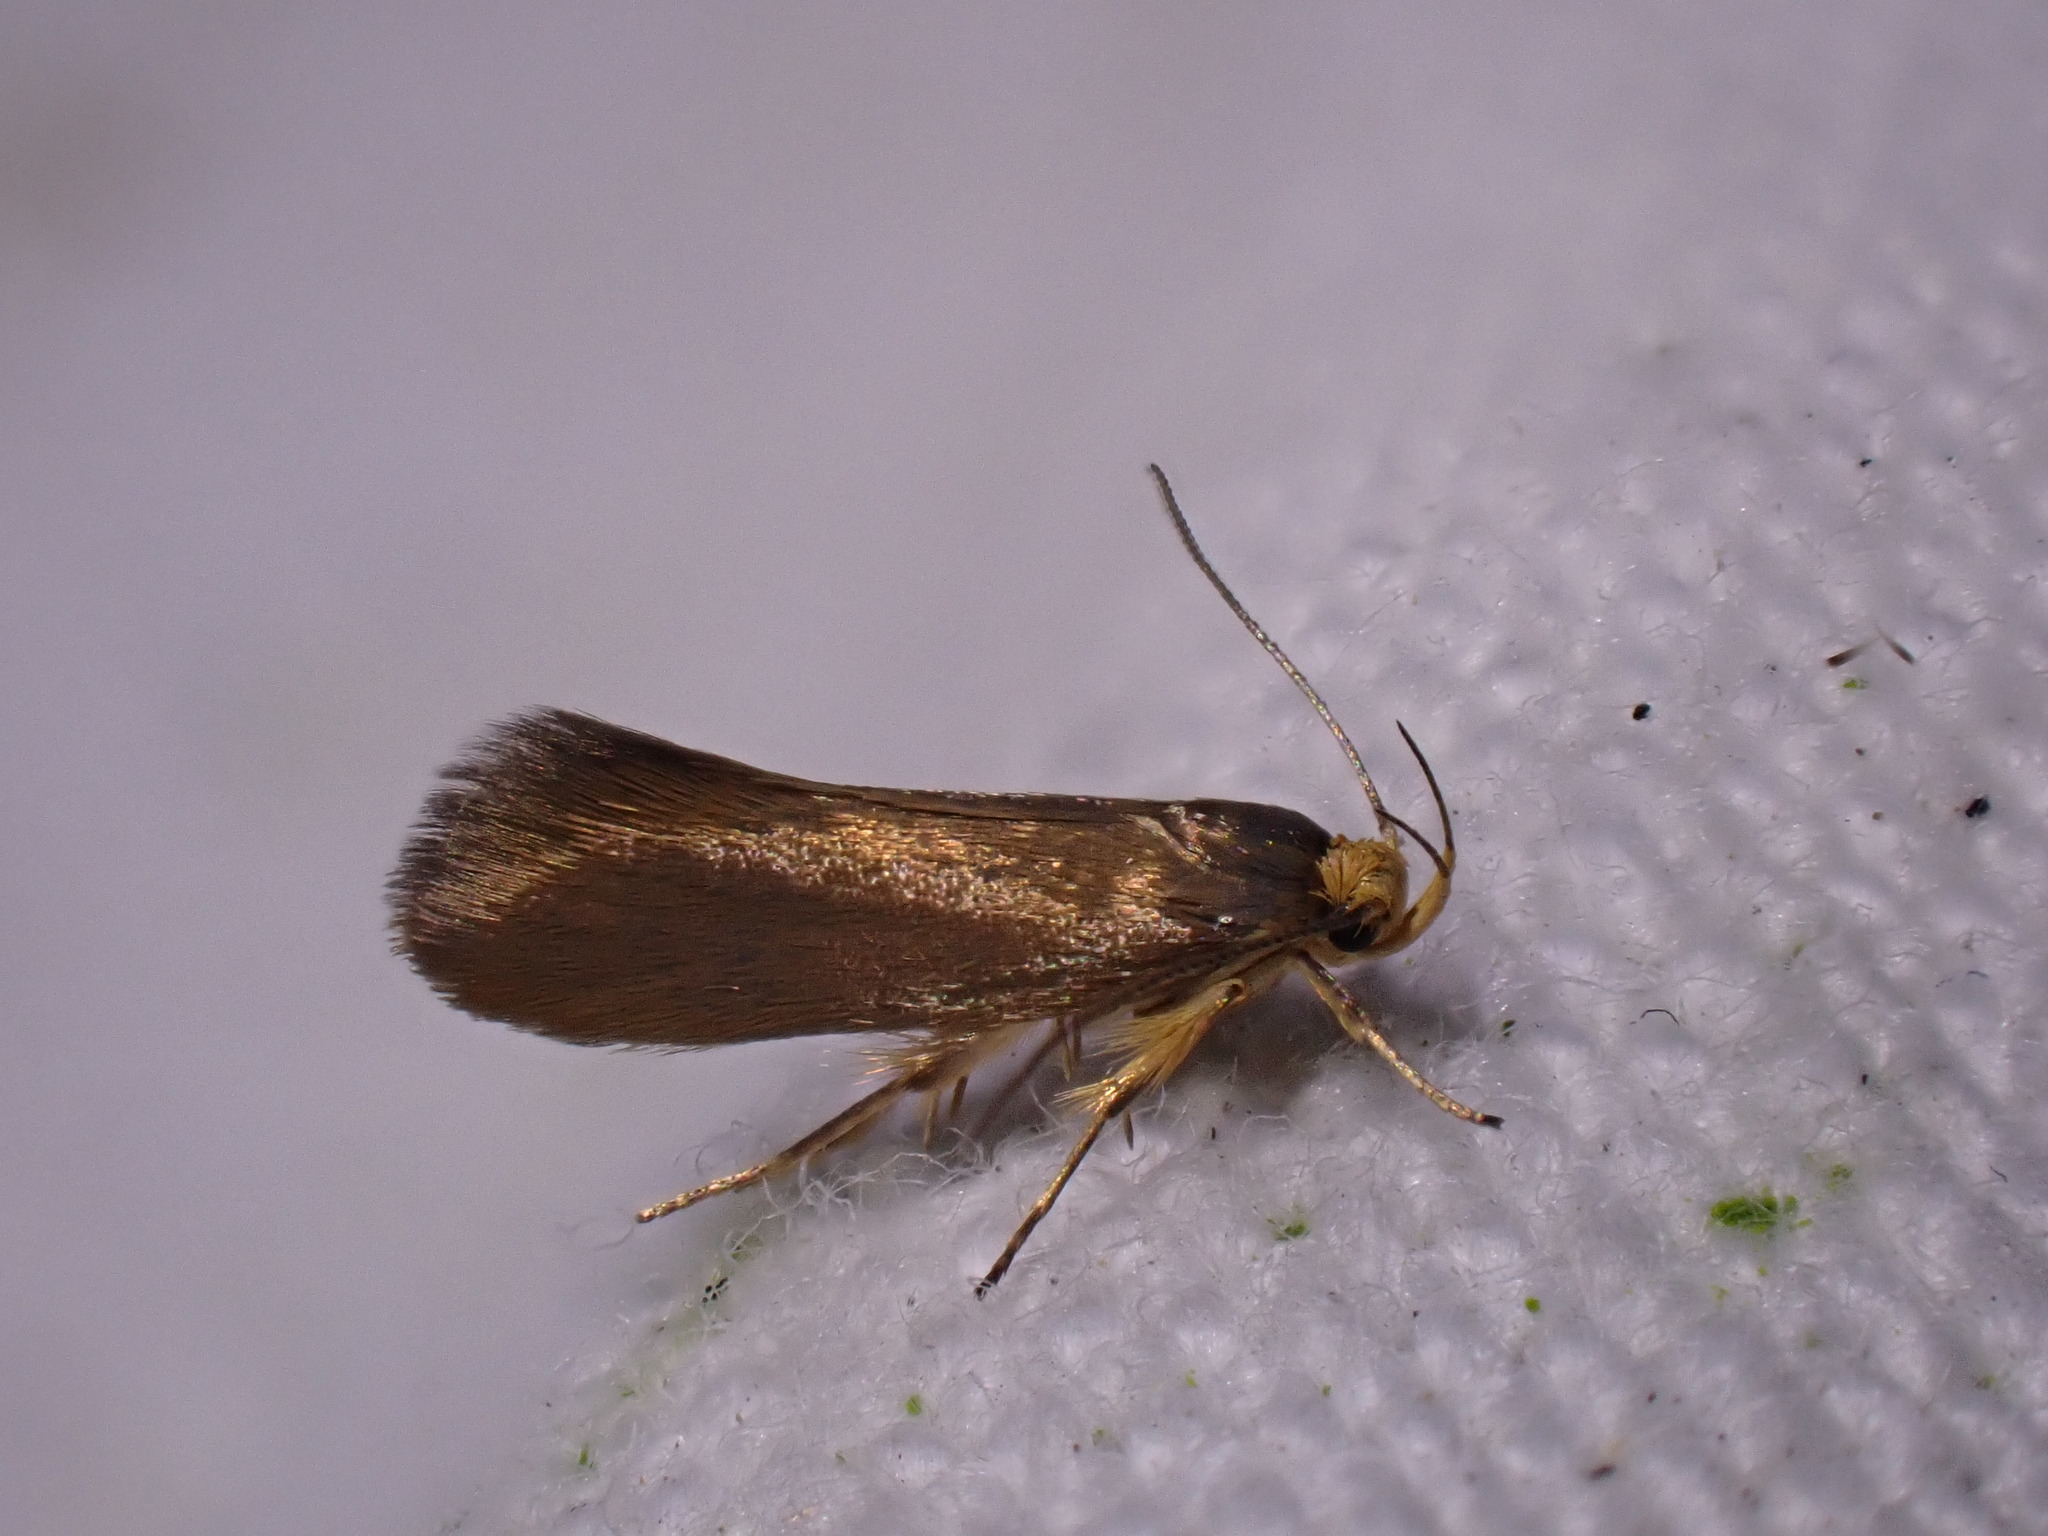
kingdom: Animalia
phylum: Arthropoda
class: Insecta
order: Lepidoptera
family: Oecophoridae
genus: Borkhausenia
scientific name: Borkhausenia Crassa unitella
